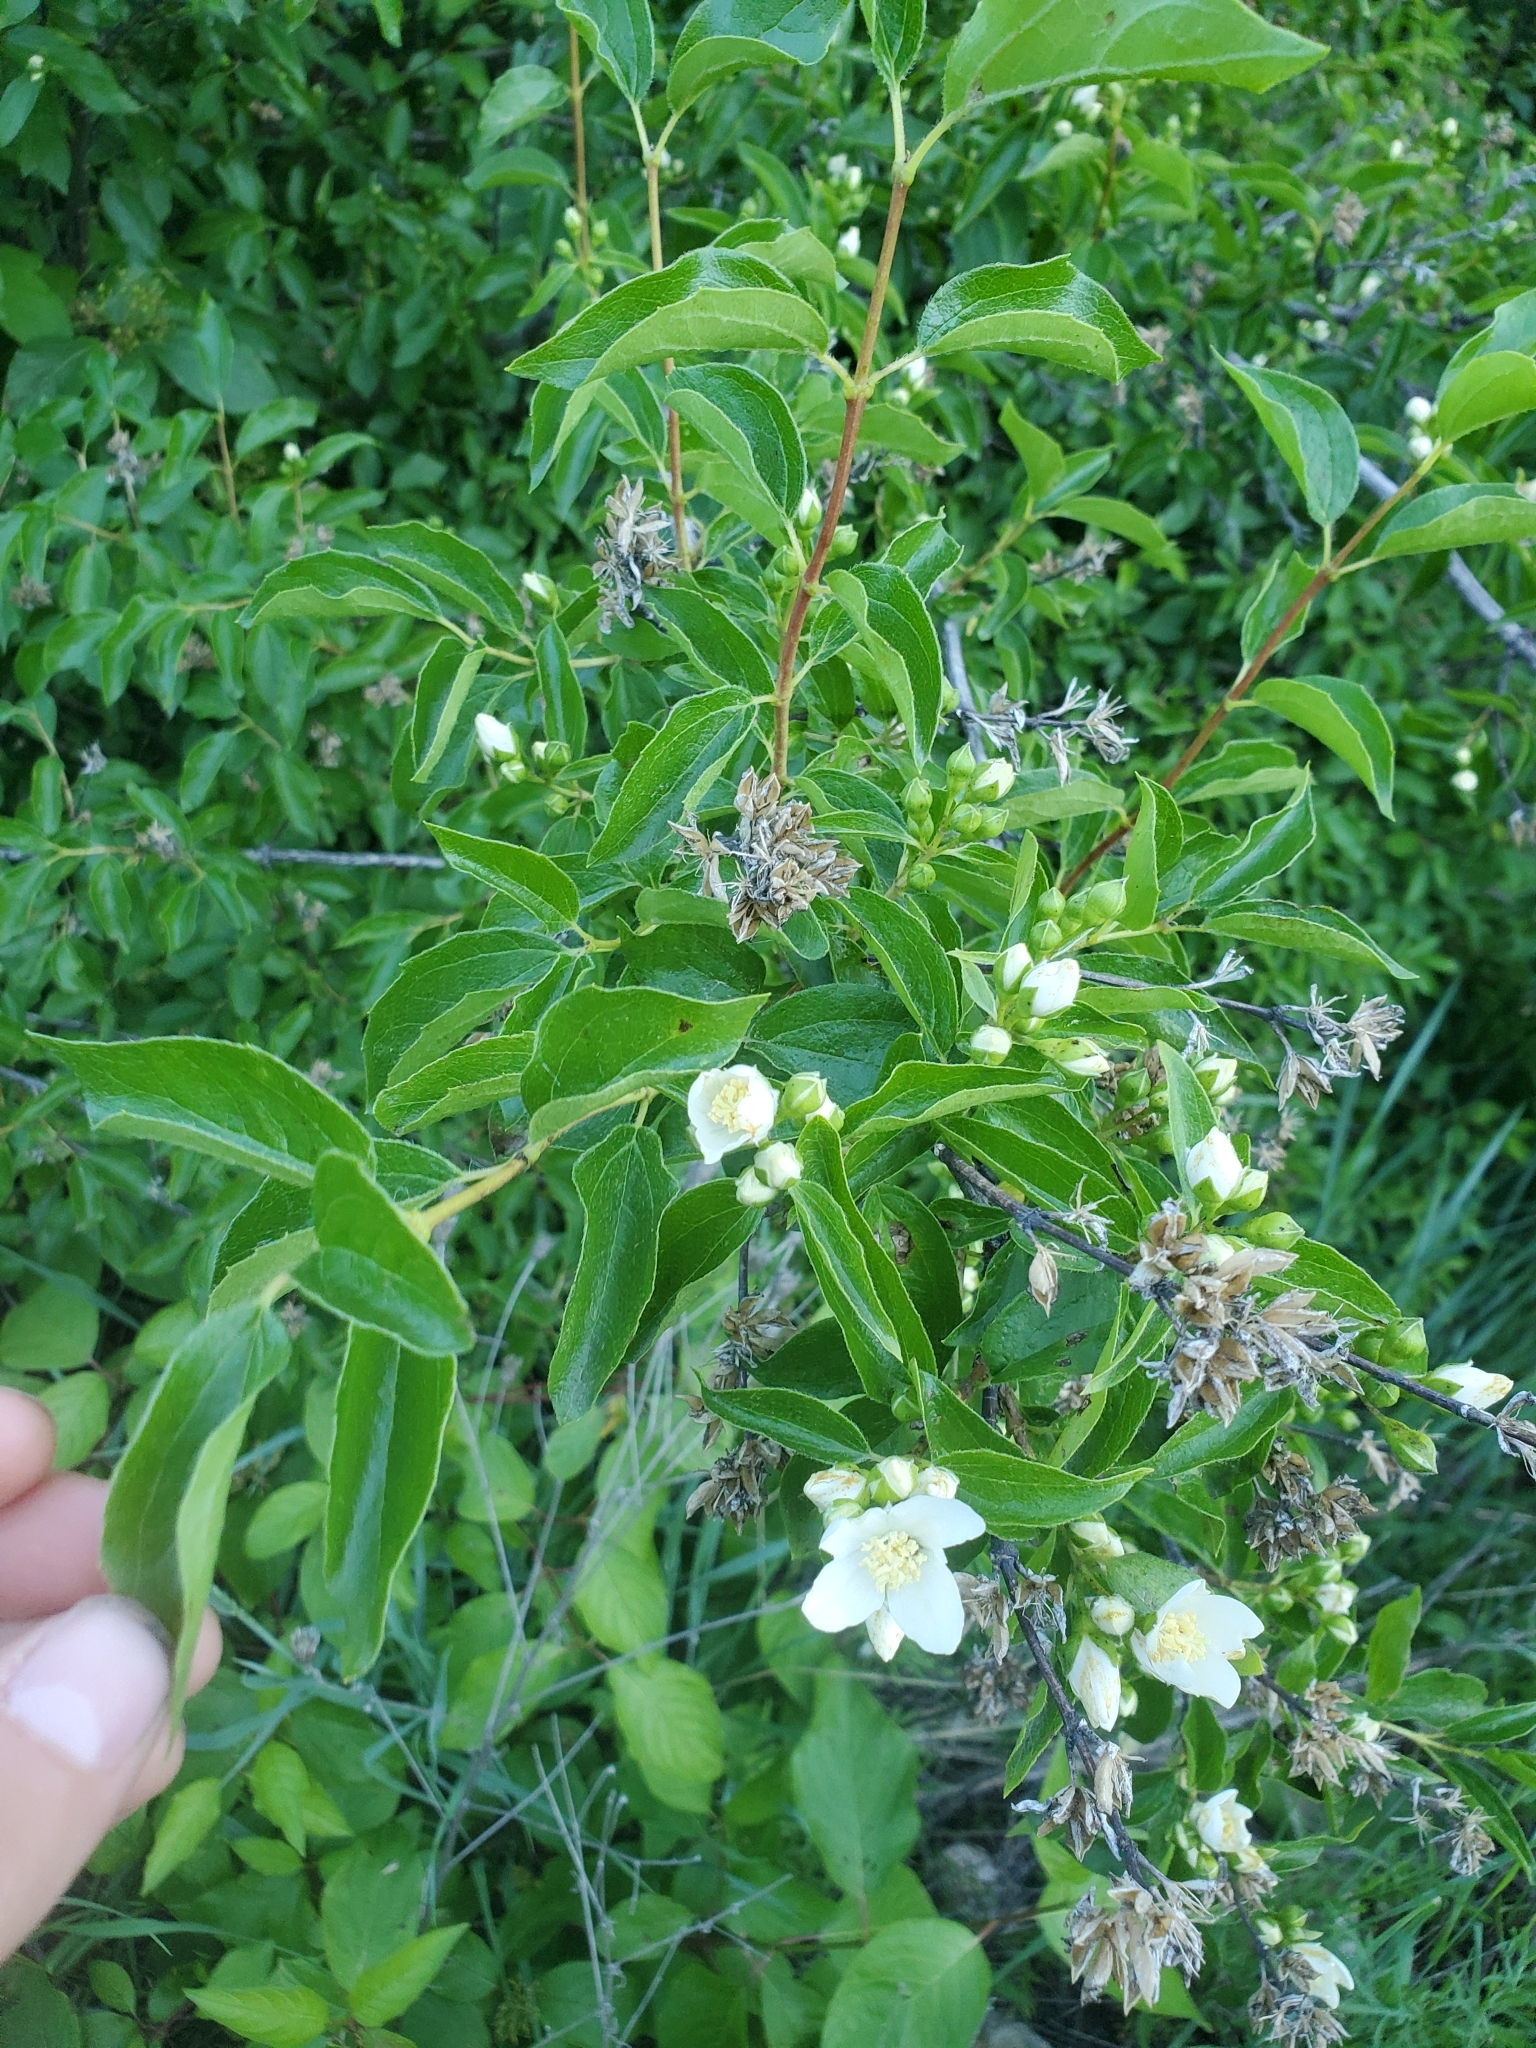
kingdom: Plantae
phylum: Tracheophyta
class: Magnoliopsida
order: Cornales
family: Hydrangeaceae
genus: Philadelphus
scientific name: Philadelphus lewisii
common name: Lewis's mock orange
